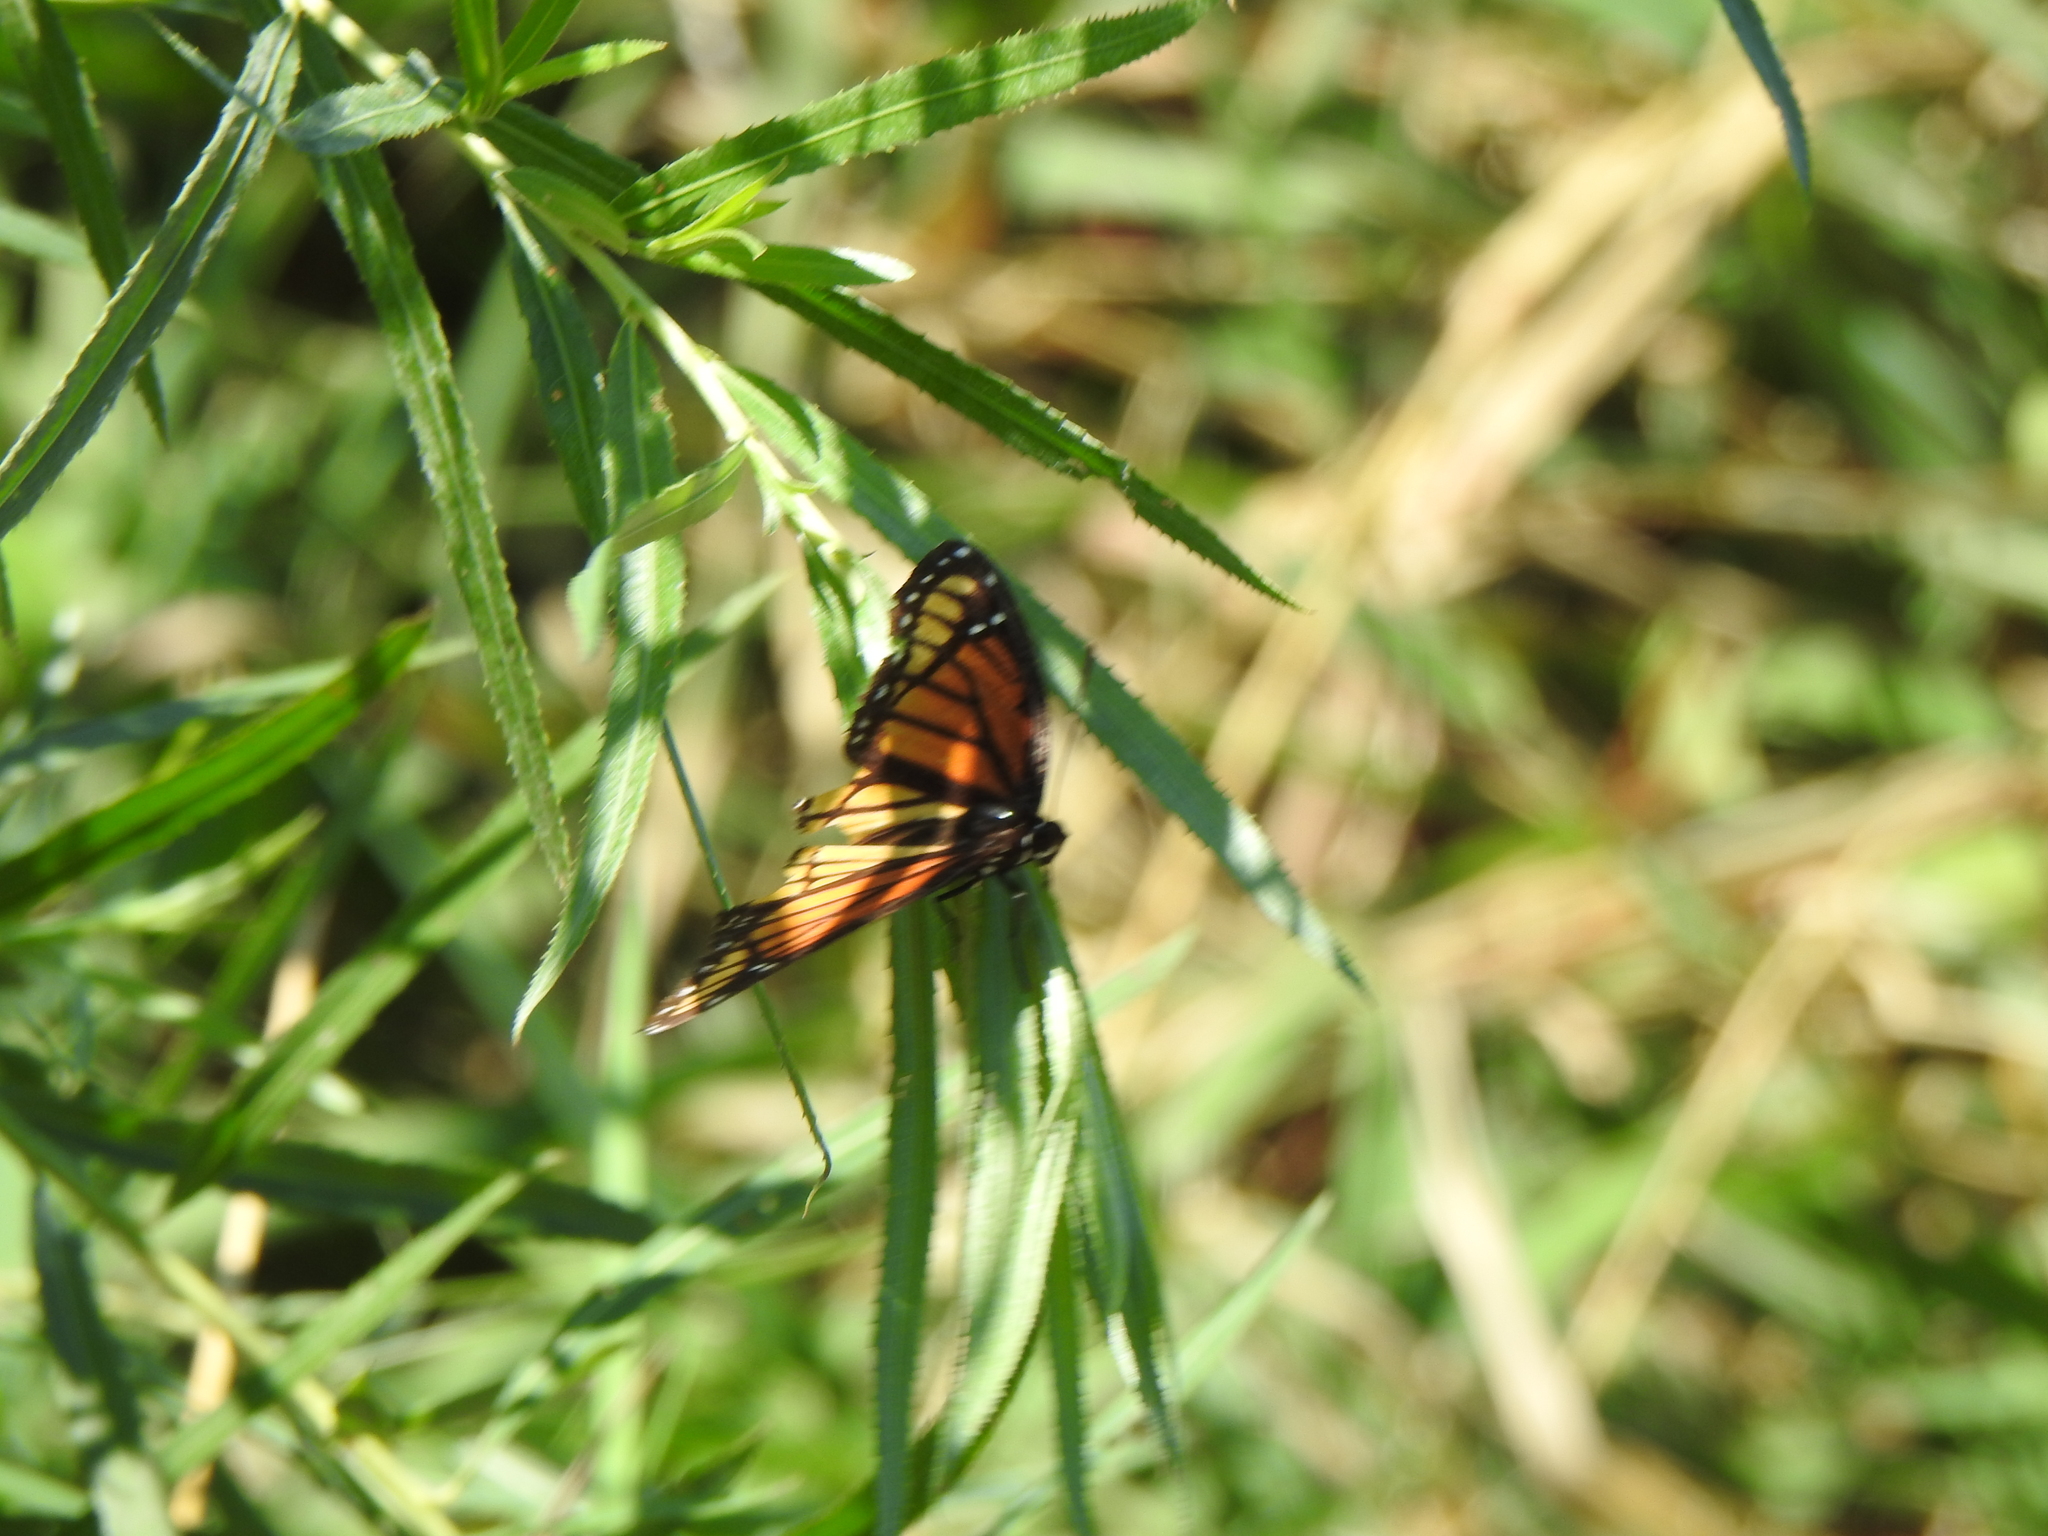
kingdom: Animalia
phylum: Arthropoda
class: Insecta
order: Lepidoptera
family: Nymphalidae
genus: Limenitis
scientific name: Limenitis archippus
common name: Viceroy
